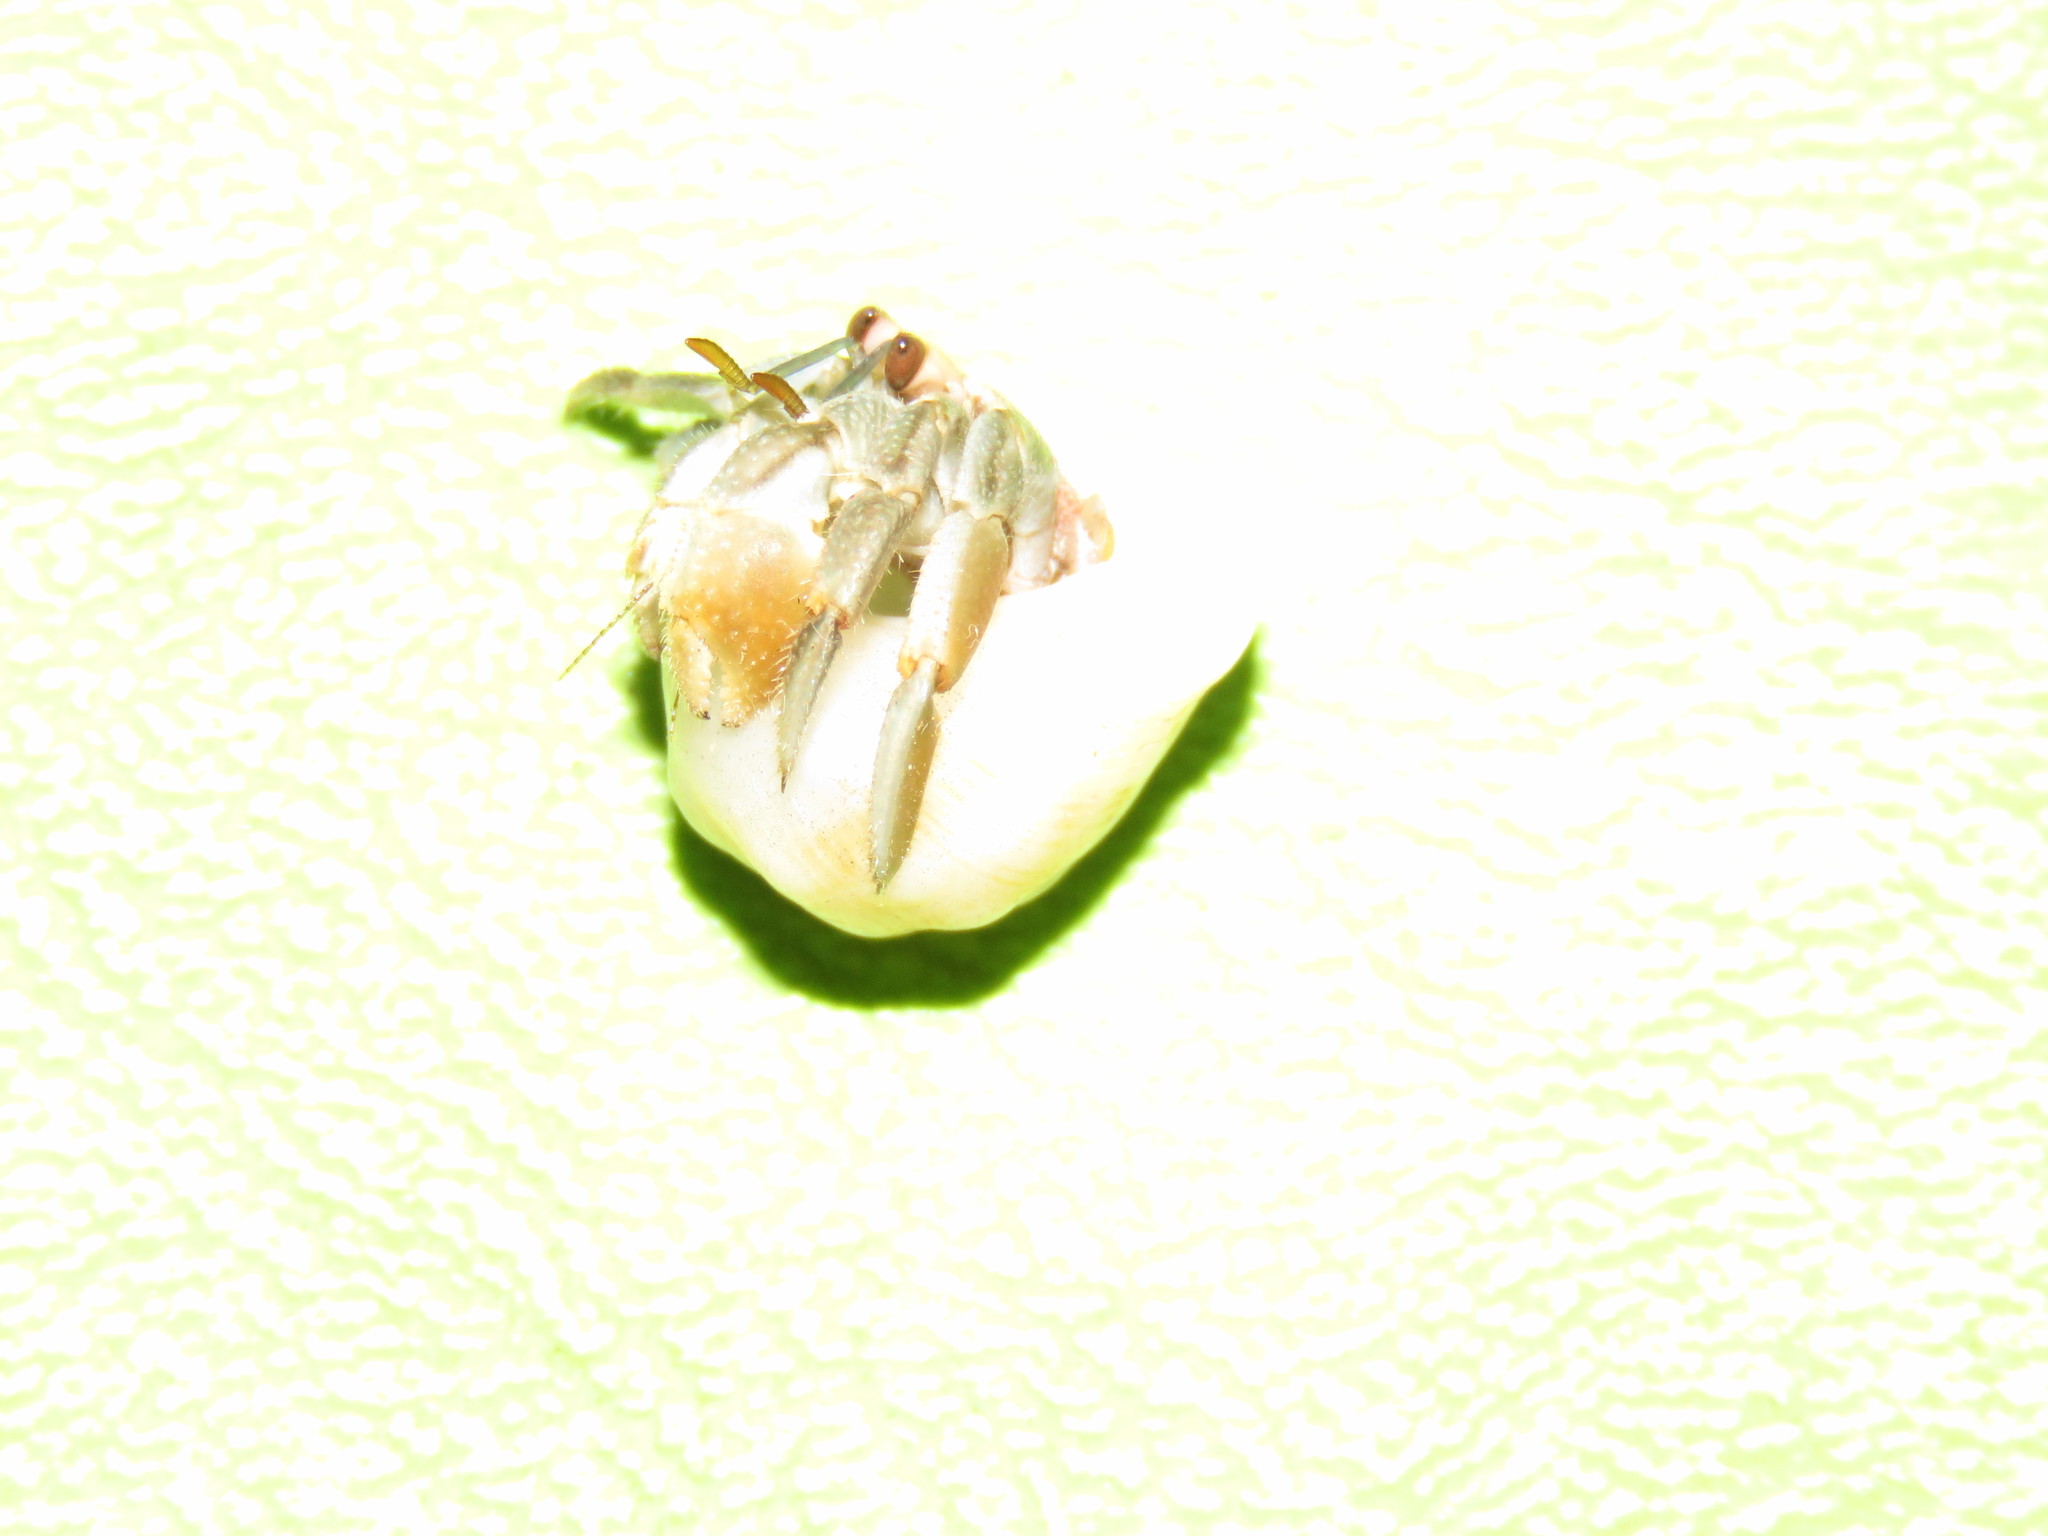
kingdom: Animalia
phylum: Arthropoda
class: Malacostraca
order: Decapoda
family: Coenobitidae
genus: Coenobita
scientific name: Coenobita compressus
